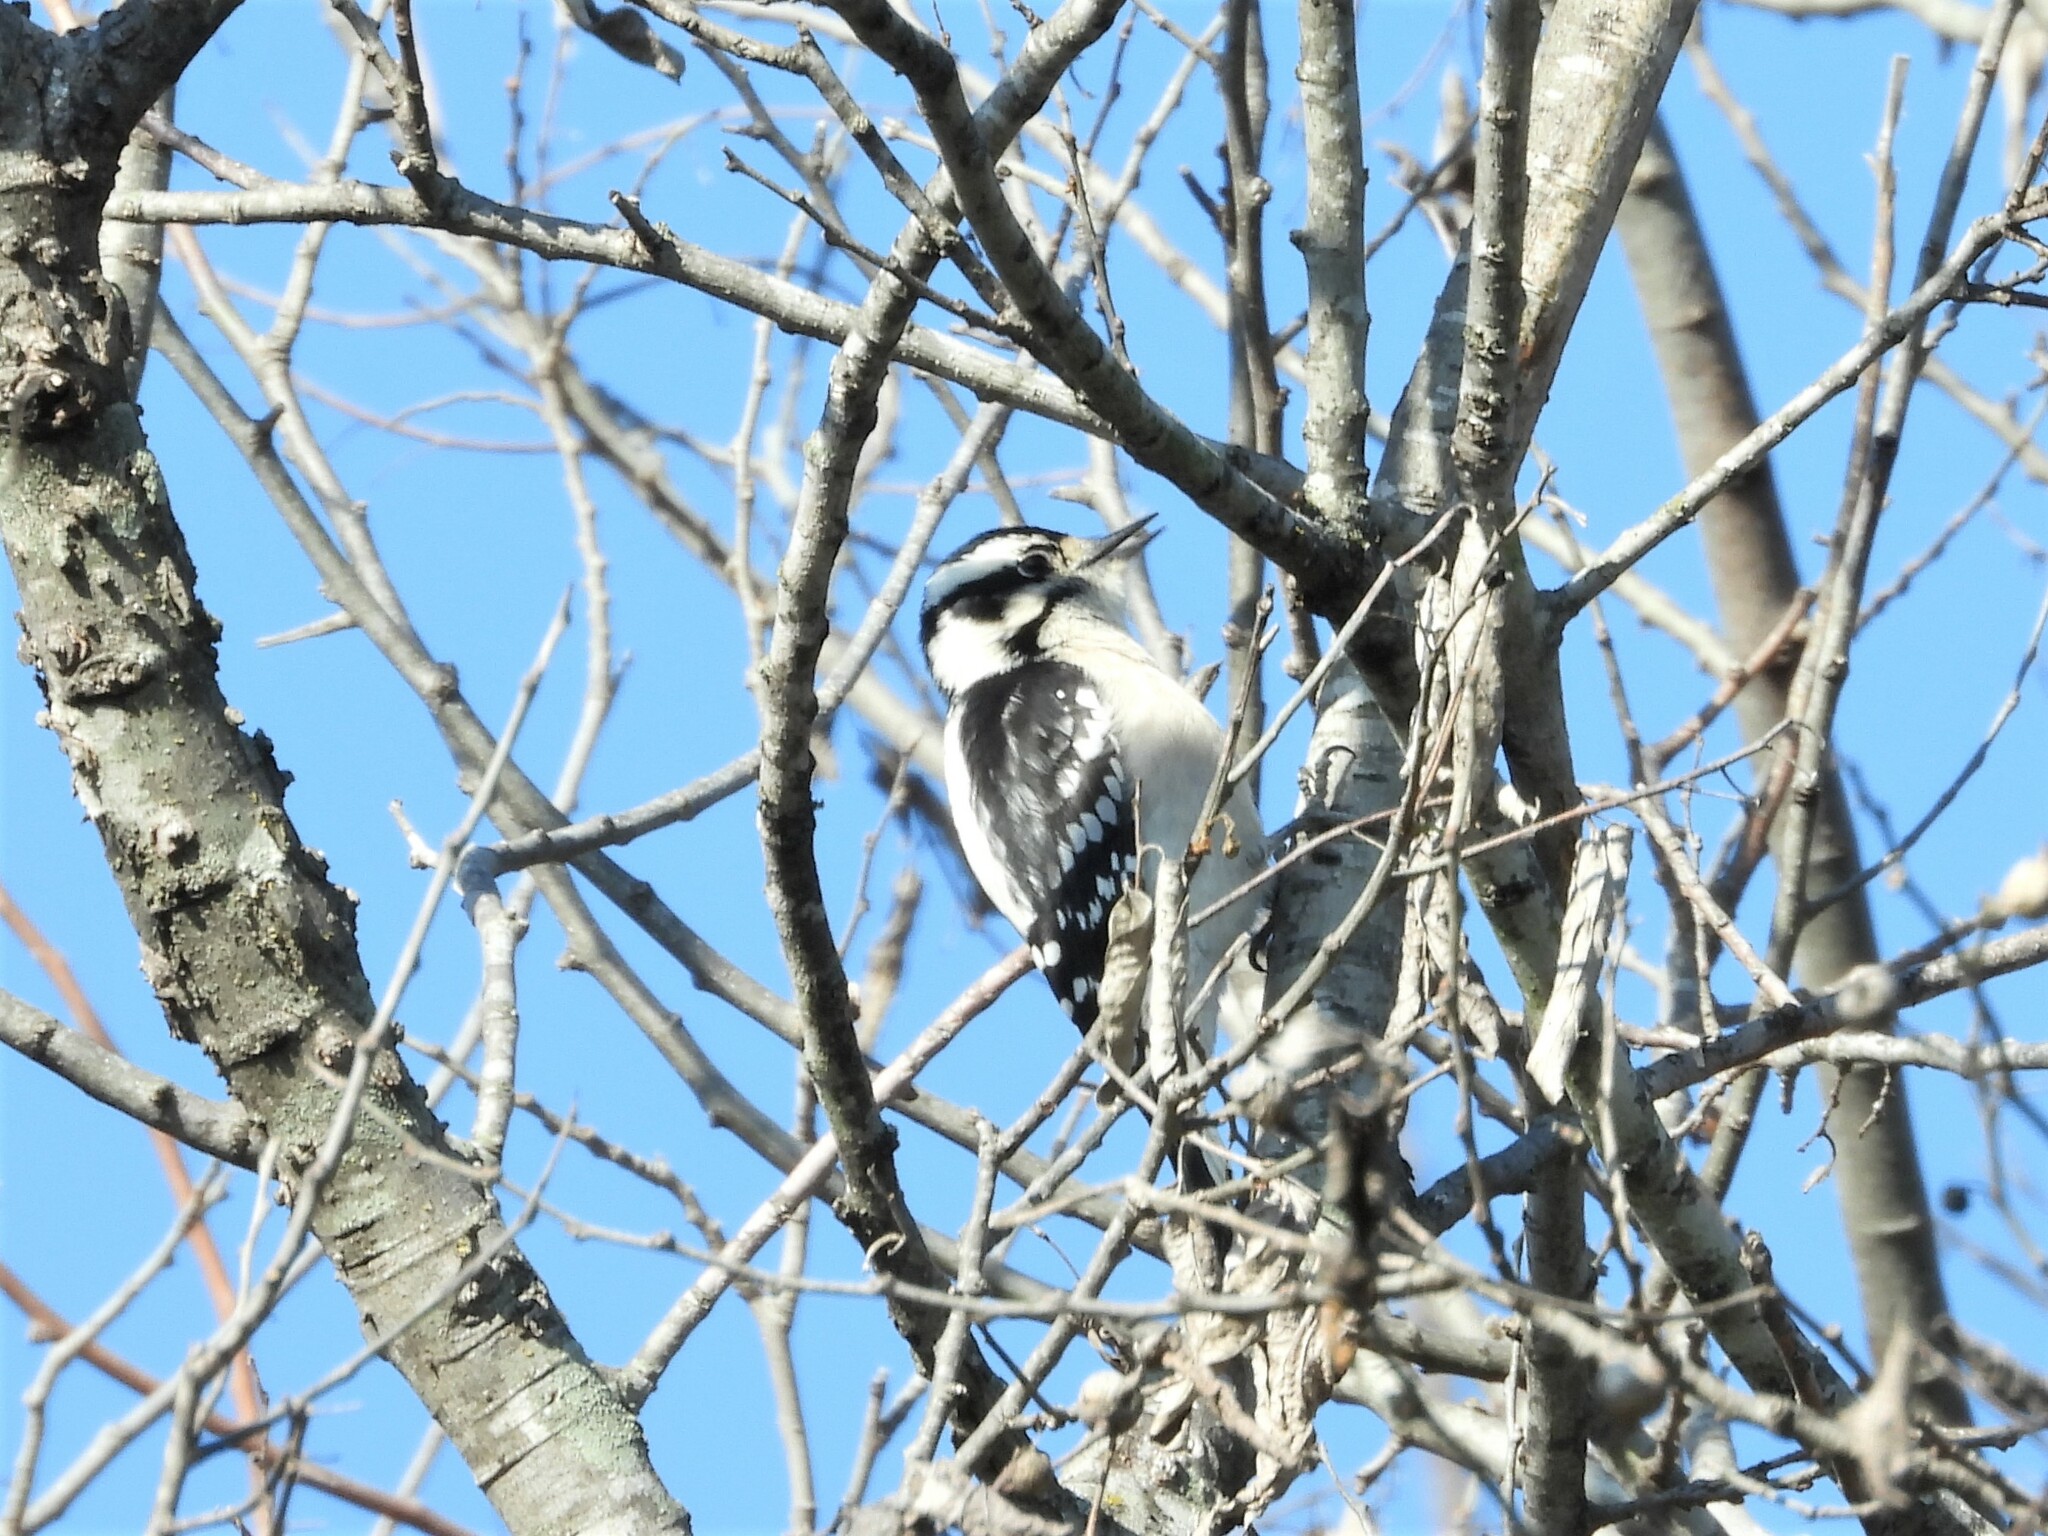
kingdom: Animalia
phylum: Chordata
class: Aves
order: Piciformes
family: Picidae
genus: Dryobates
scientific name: Dryobates pubescens
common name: Downy woodpecker
